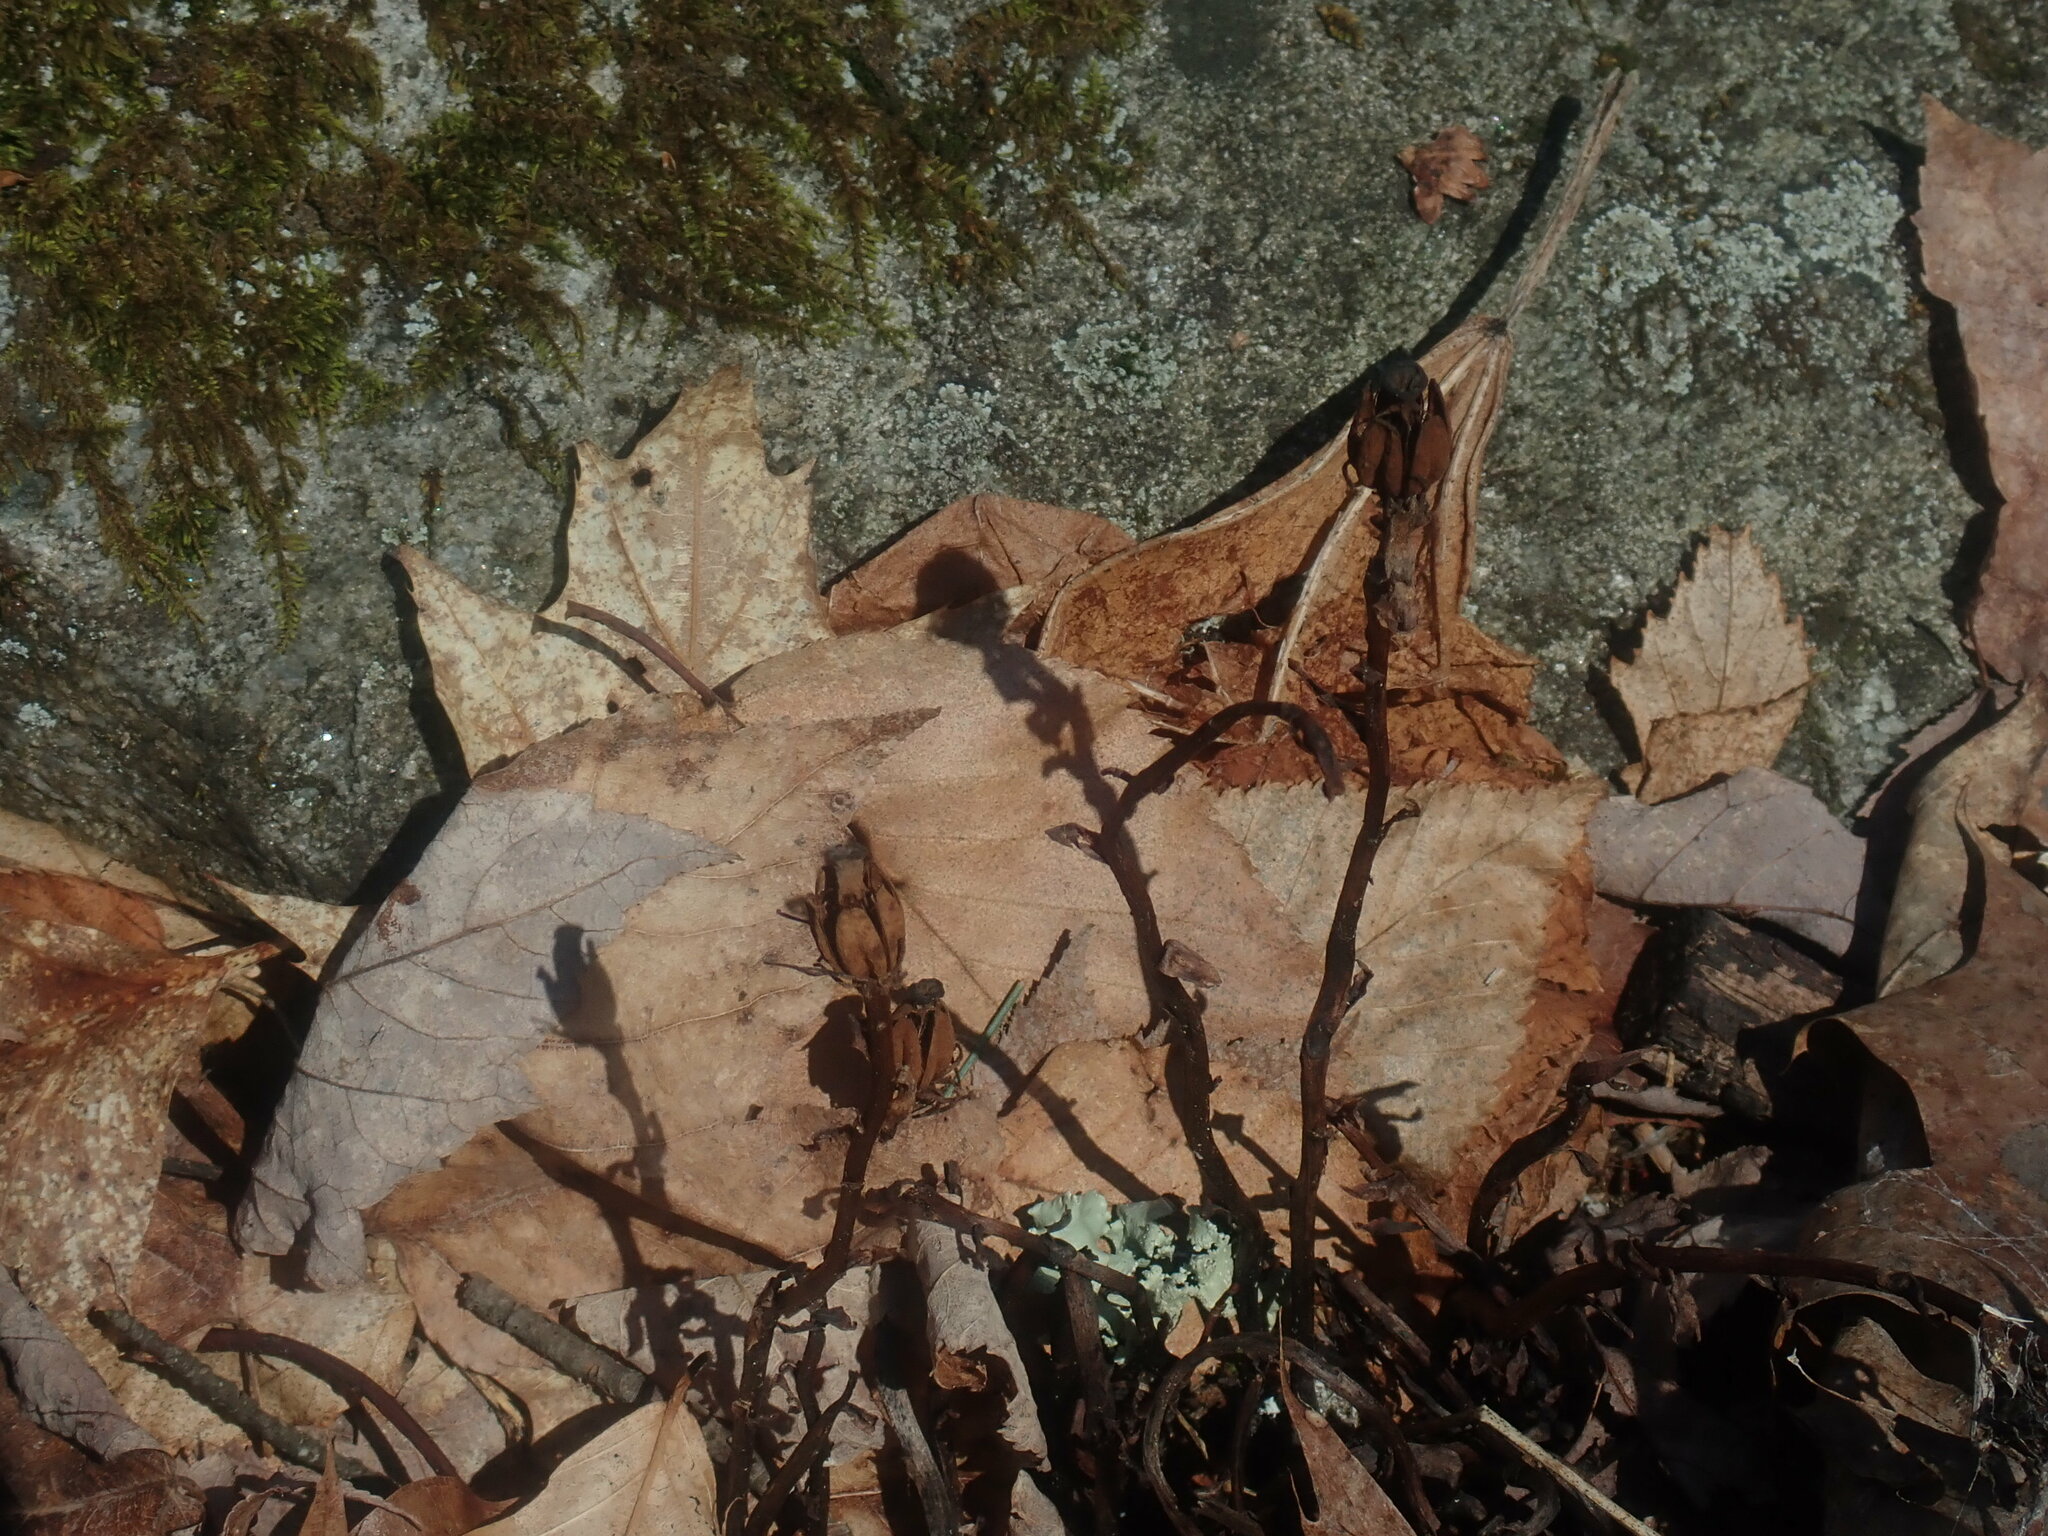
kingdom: Plantae
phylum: Tracheophyta
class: Magnoliopsida
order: Ericales
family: Ericaceae
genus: Monotropa
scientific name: Monotropa uniflora
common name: Convulsion root
